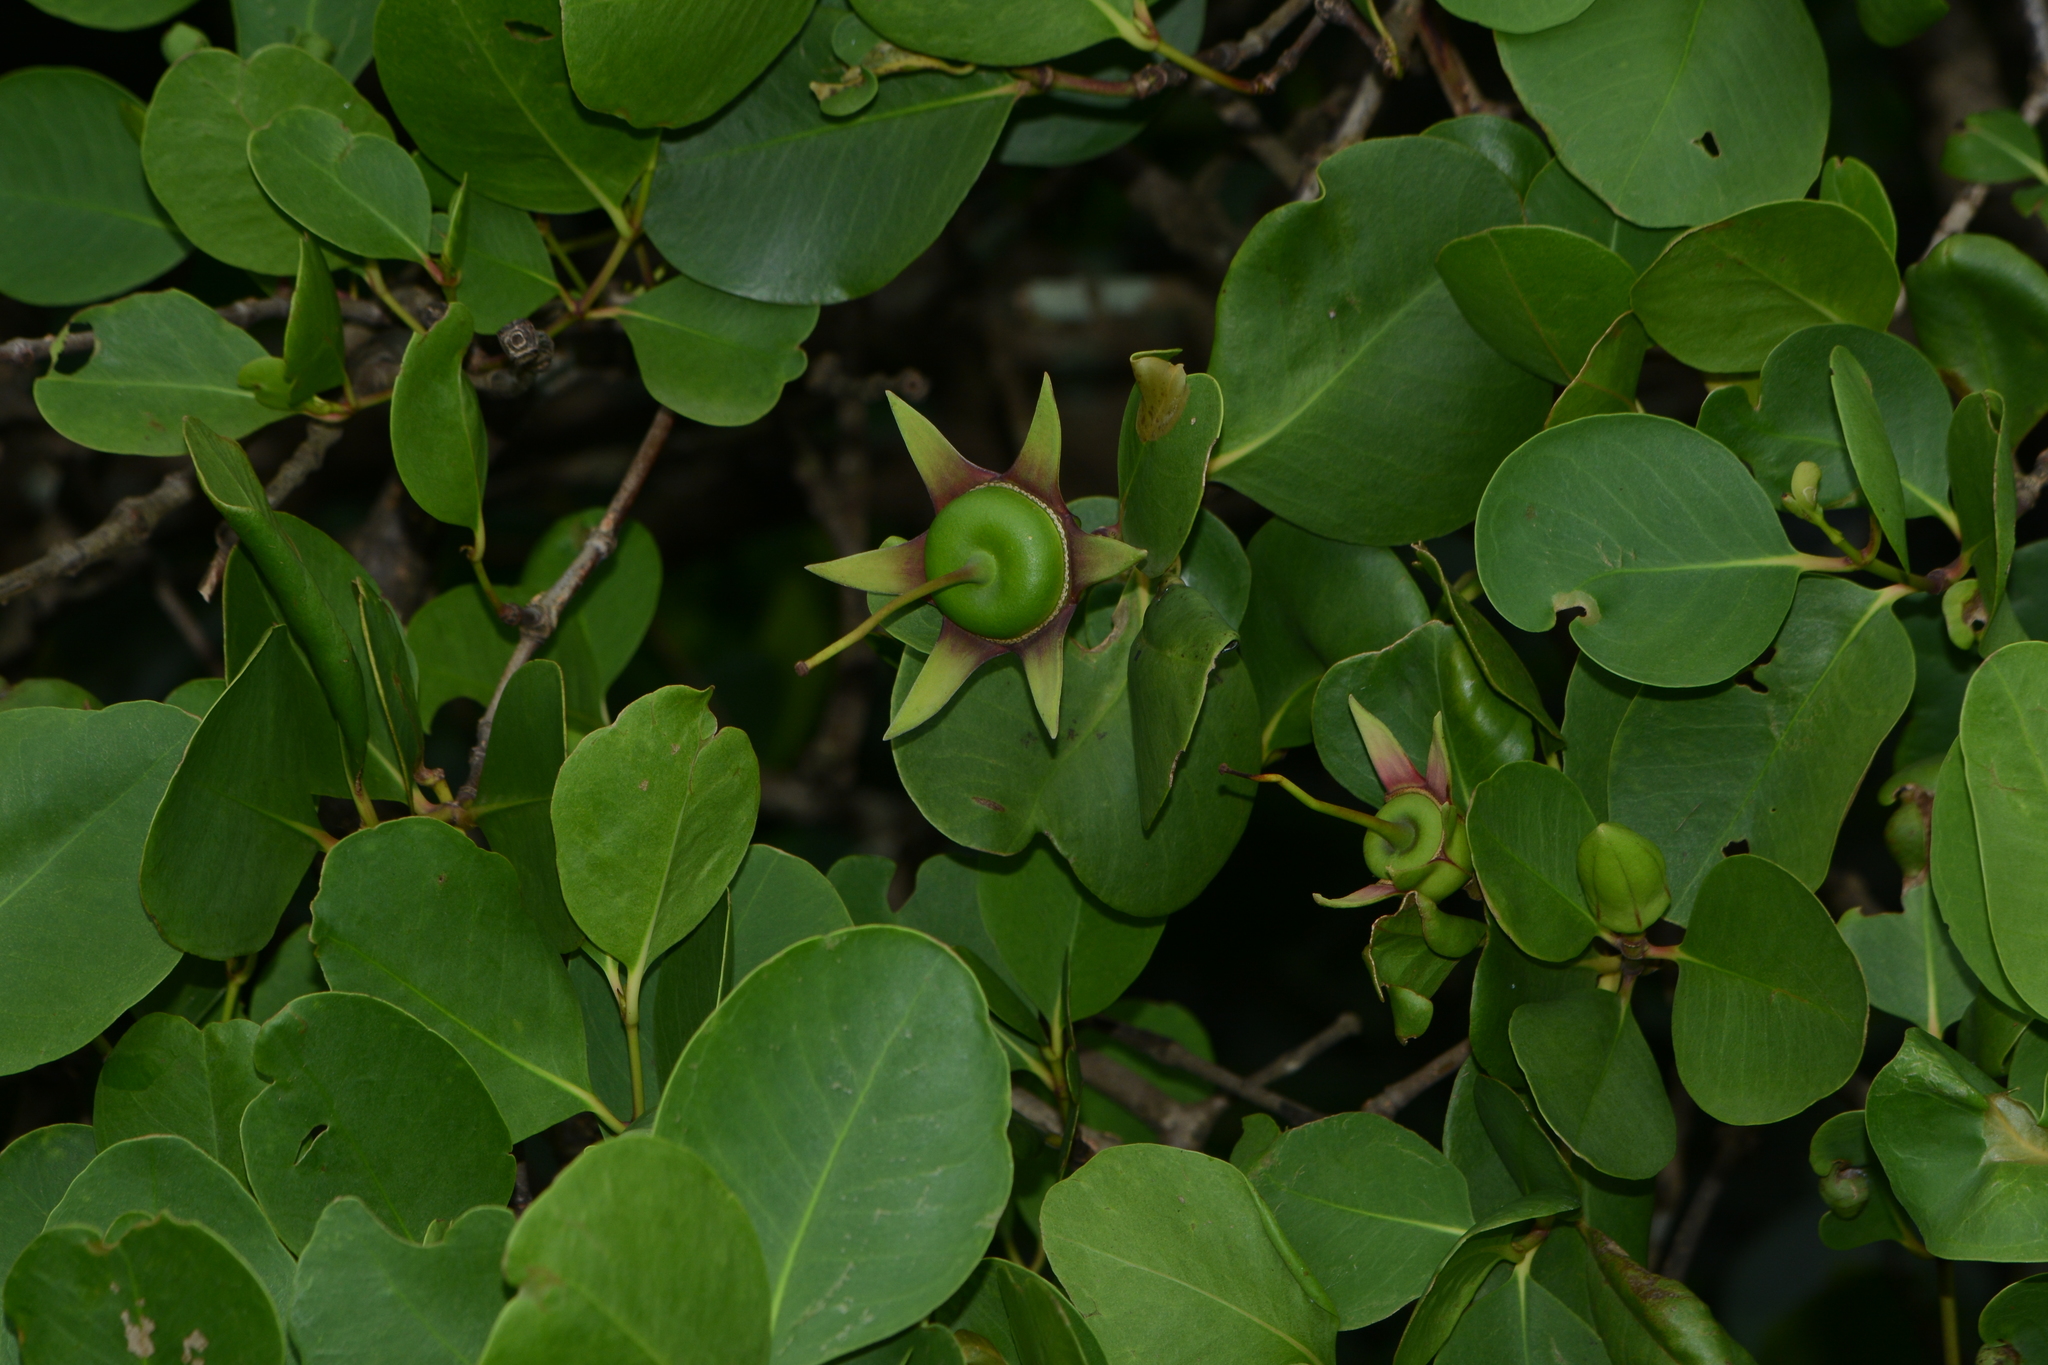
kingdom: Plantae
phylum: Tracheophyta
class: Magnoliopsida
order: Myrtales
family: Lythraceae
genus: Sonneratia
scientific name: Sonneratia alba
